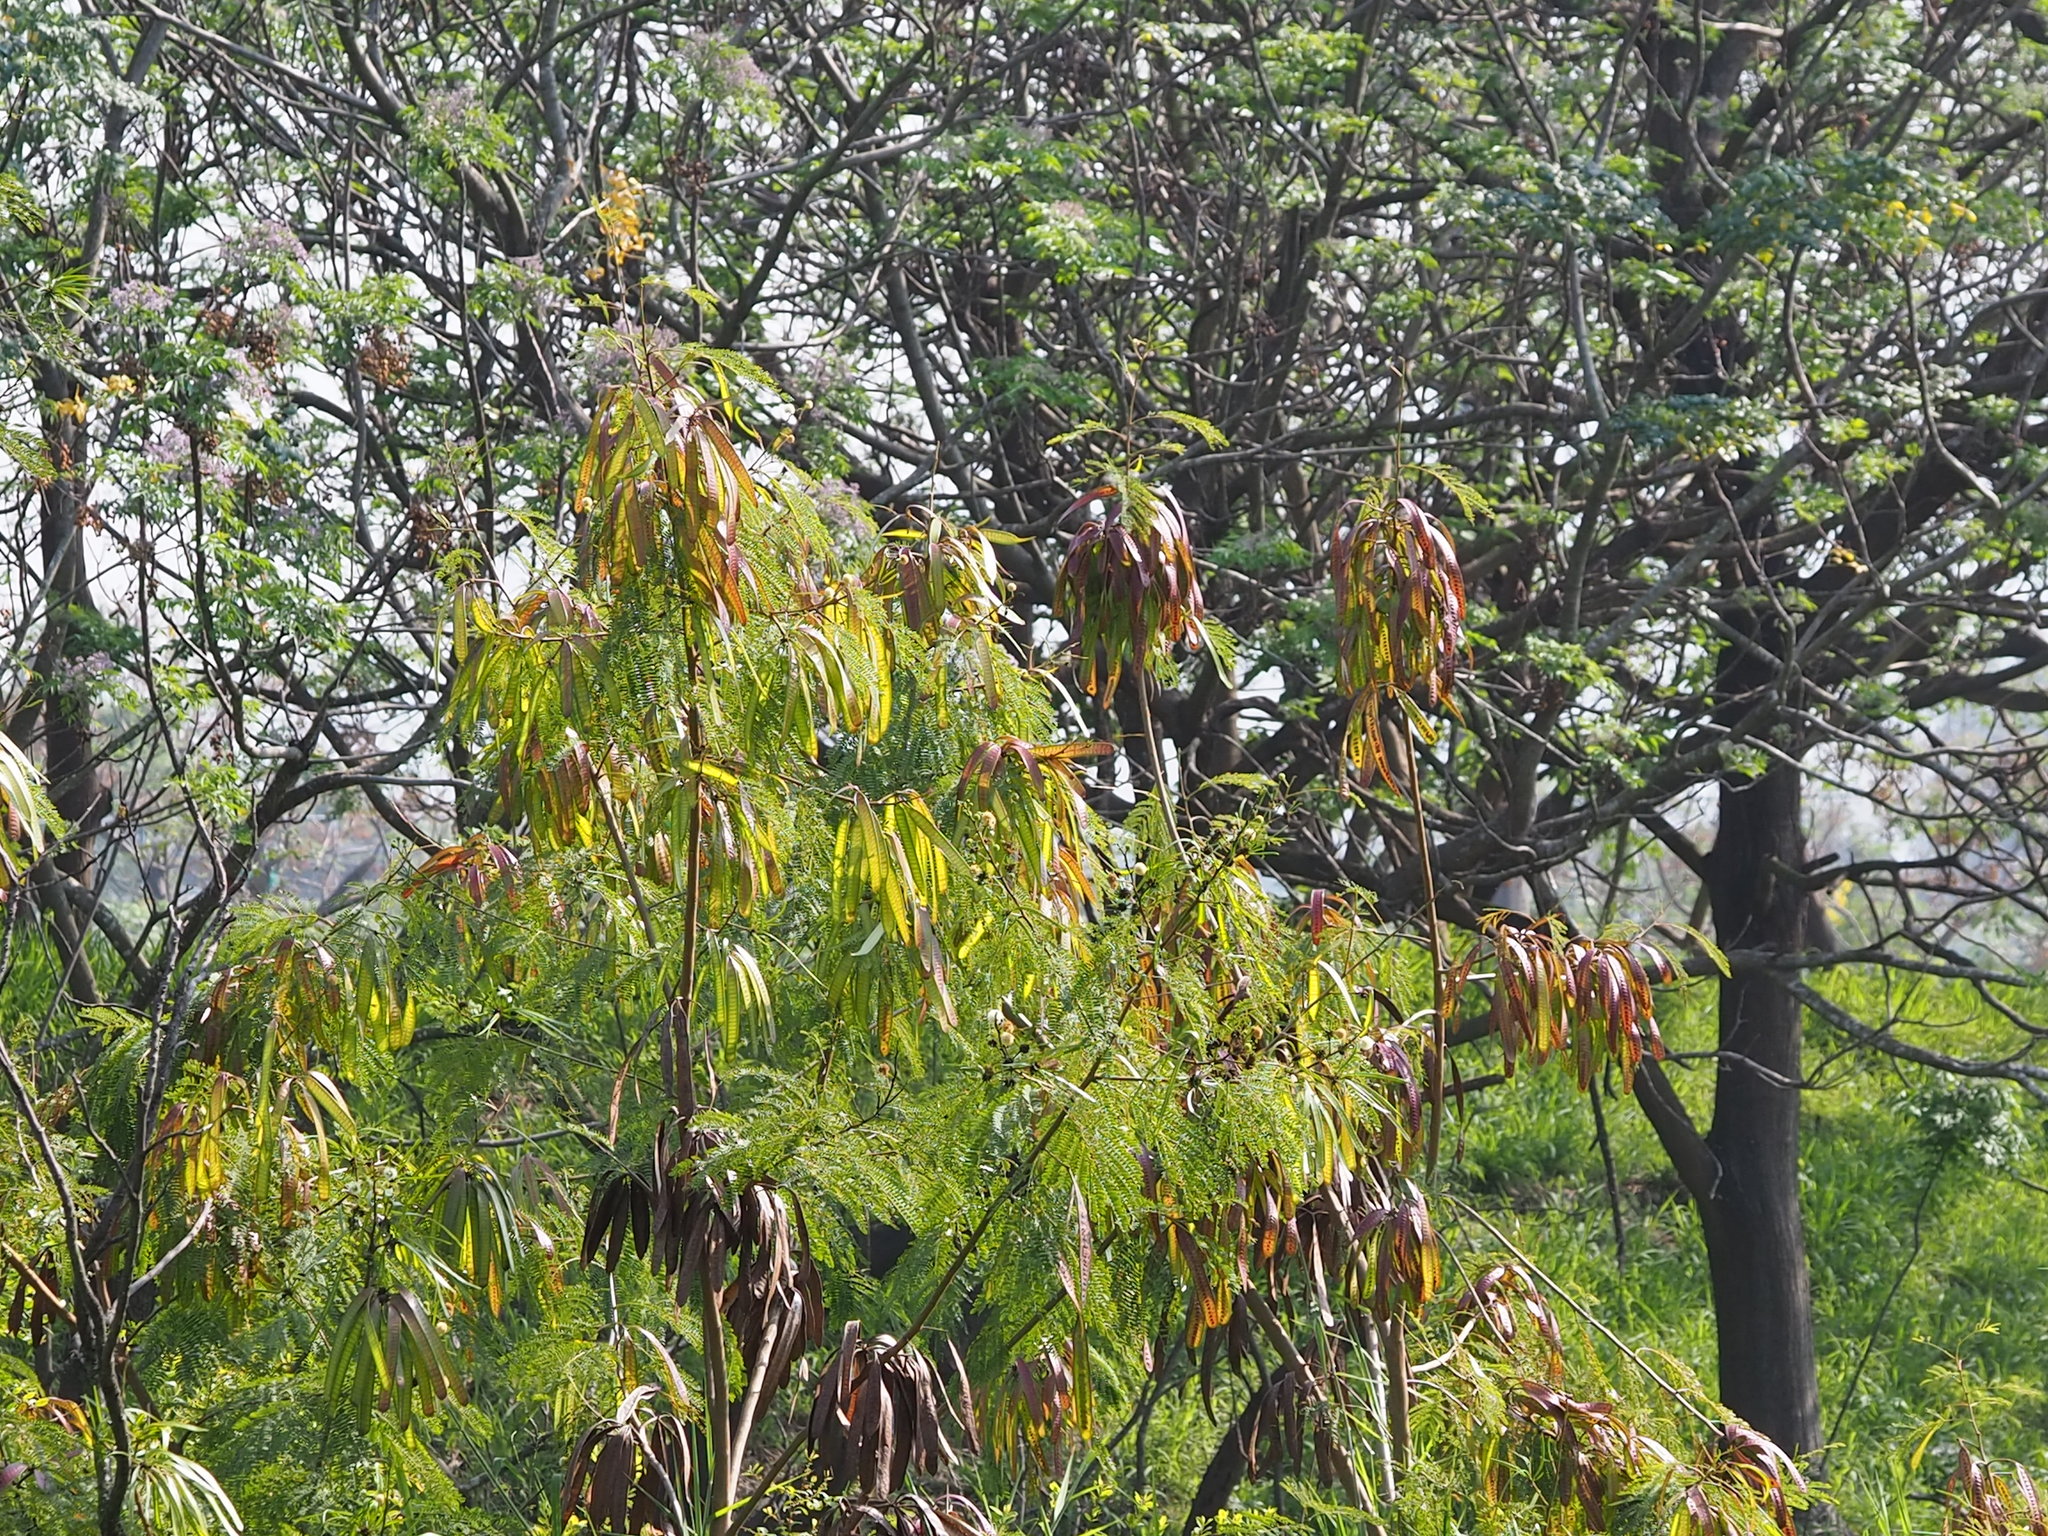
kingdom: Plantae
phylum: Tracheophyta
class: Magnoliopsida
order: Fabales
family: Fabaceae
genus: Leucaena
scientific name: Leucaena leucocephala
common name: White leadtree
